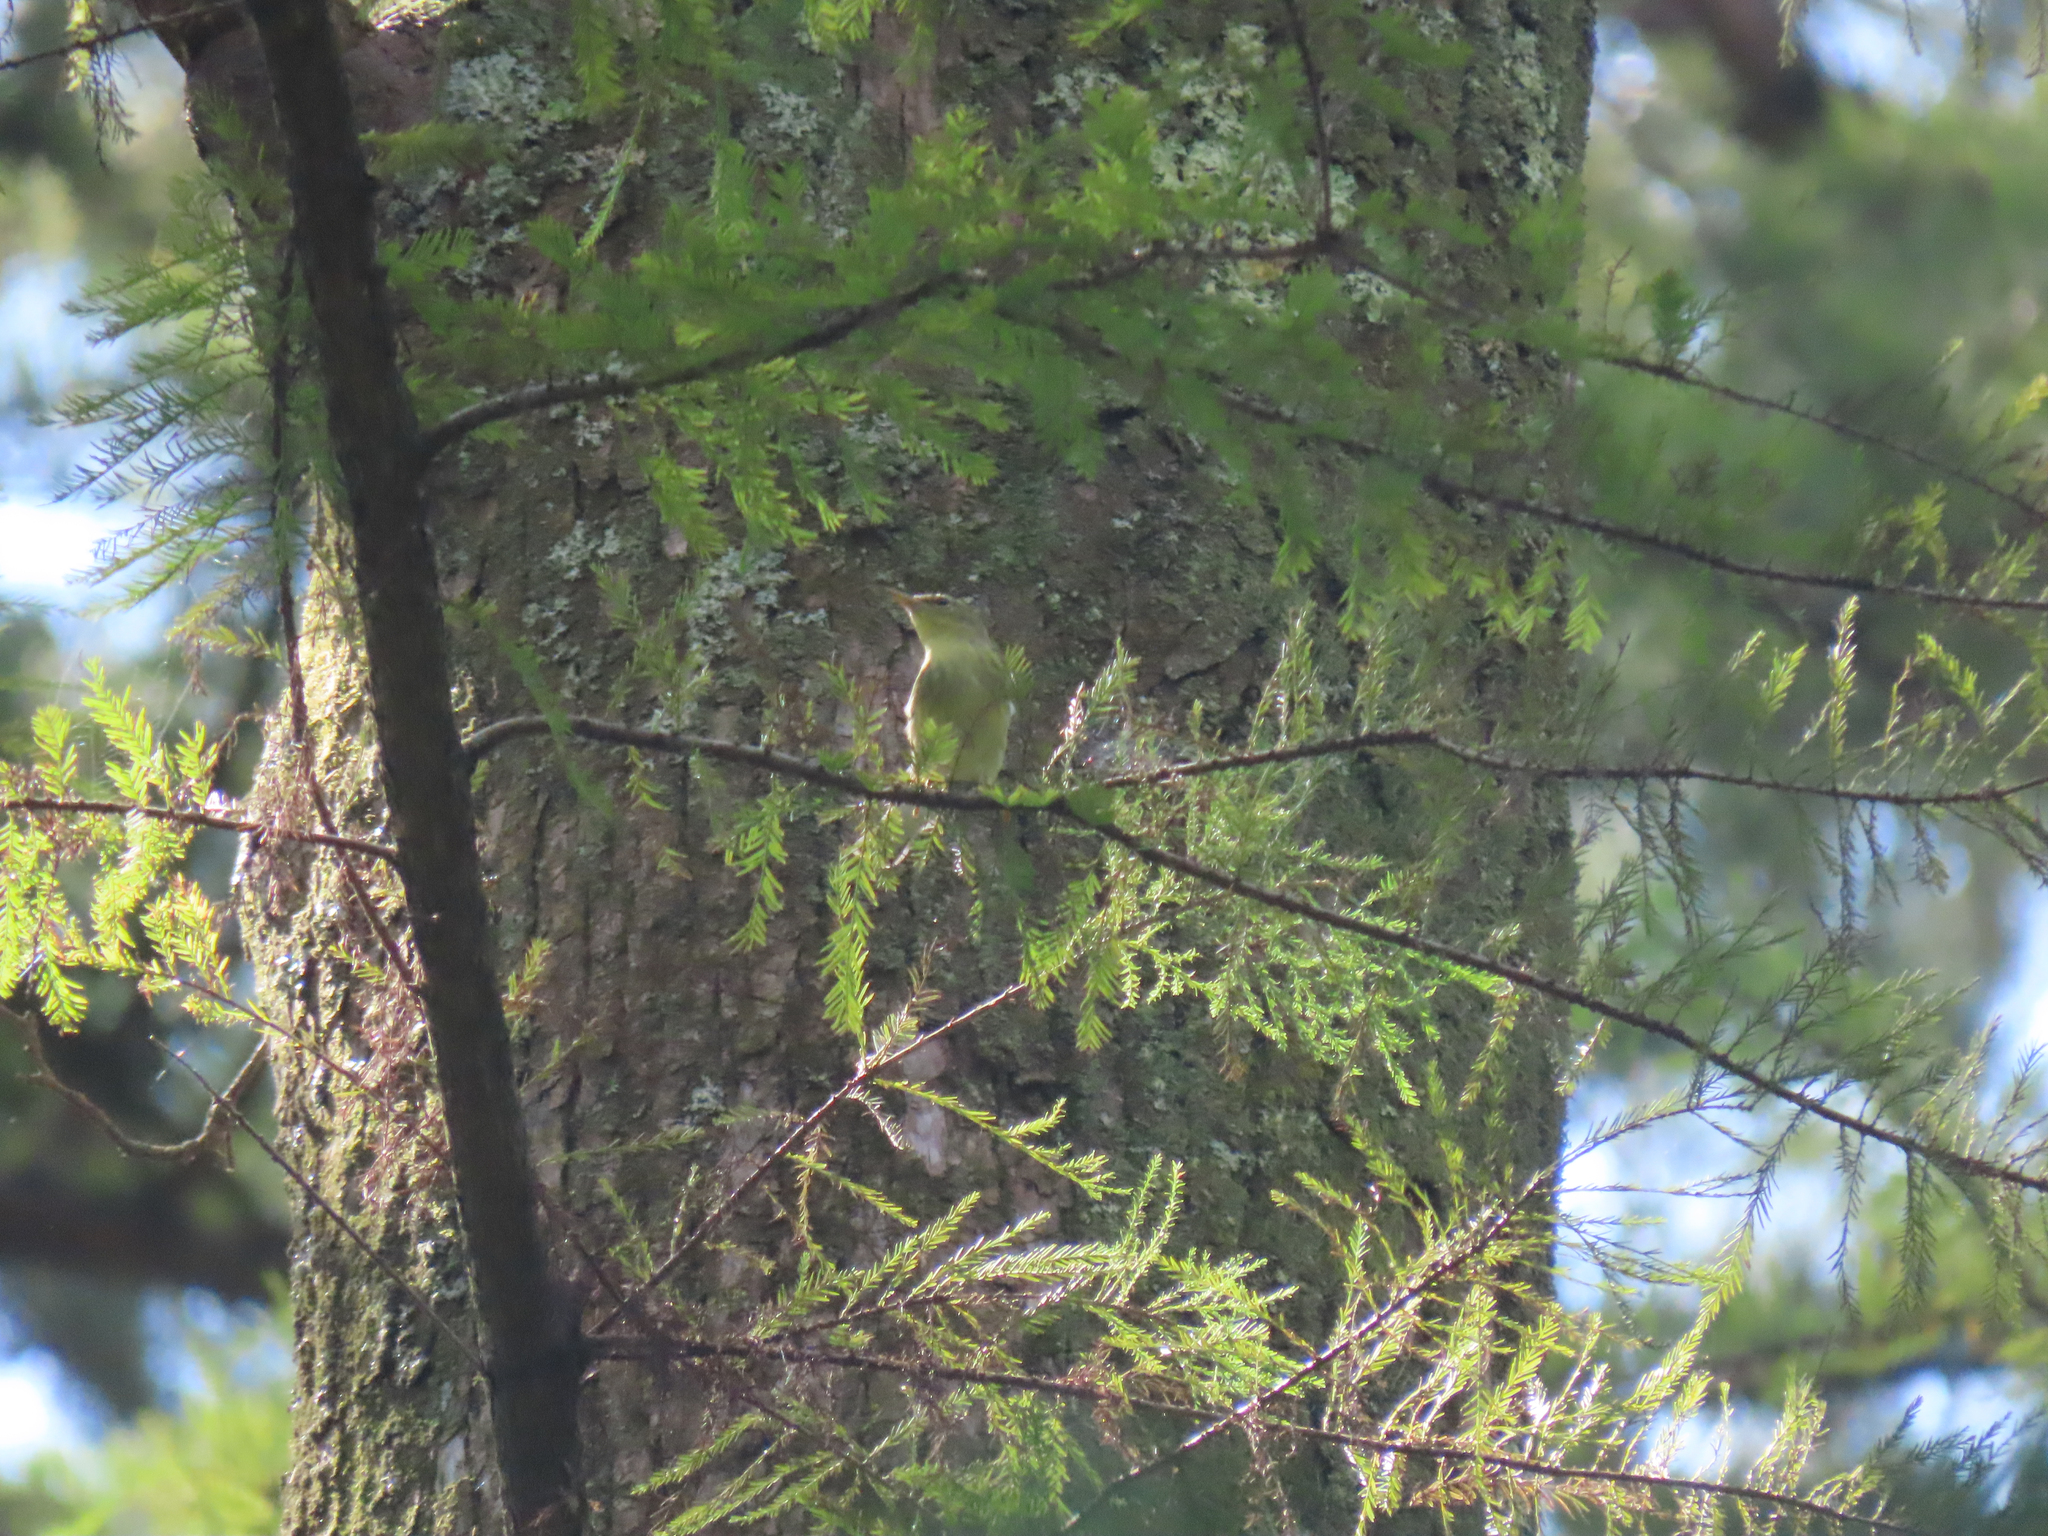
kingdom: Animalia
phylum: Chordata
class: Aves
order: Passeriformes
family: Parulidae
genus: Setophaga
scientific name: Setophaga striata
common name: Blackpoll warbler
